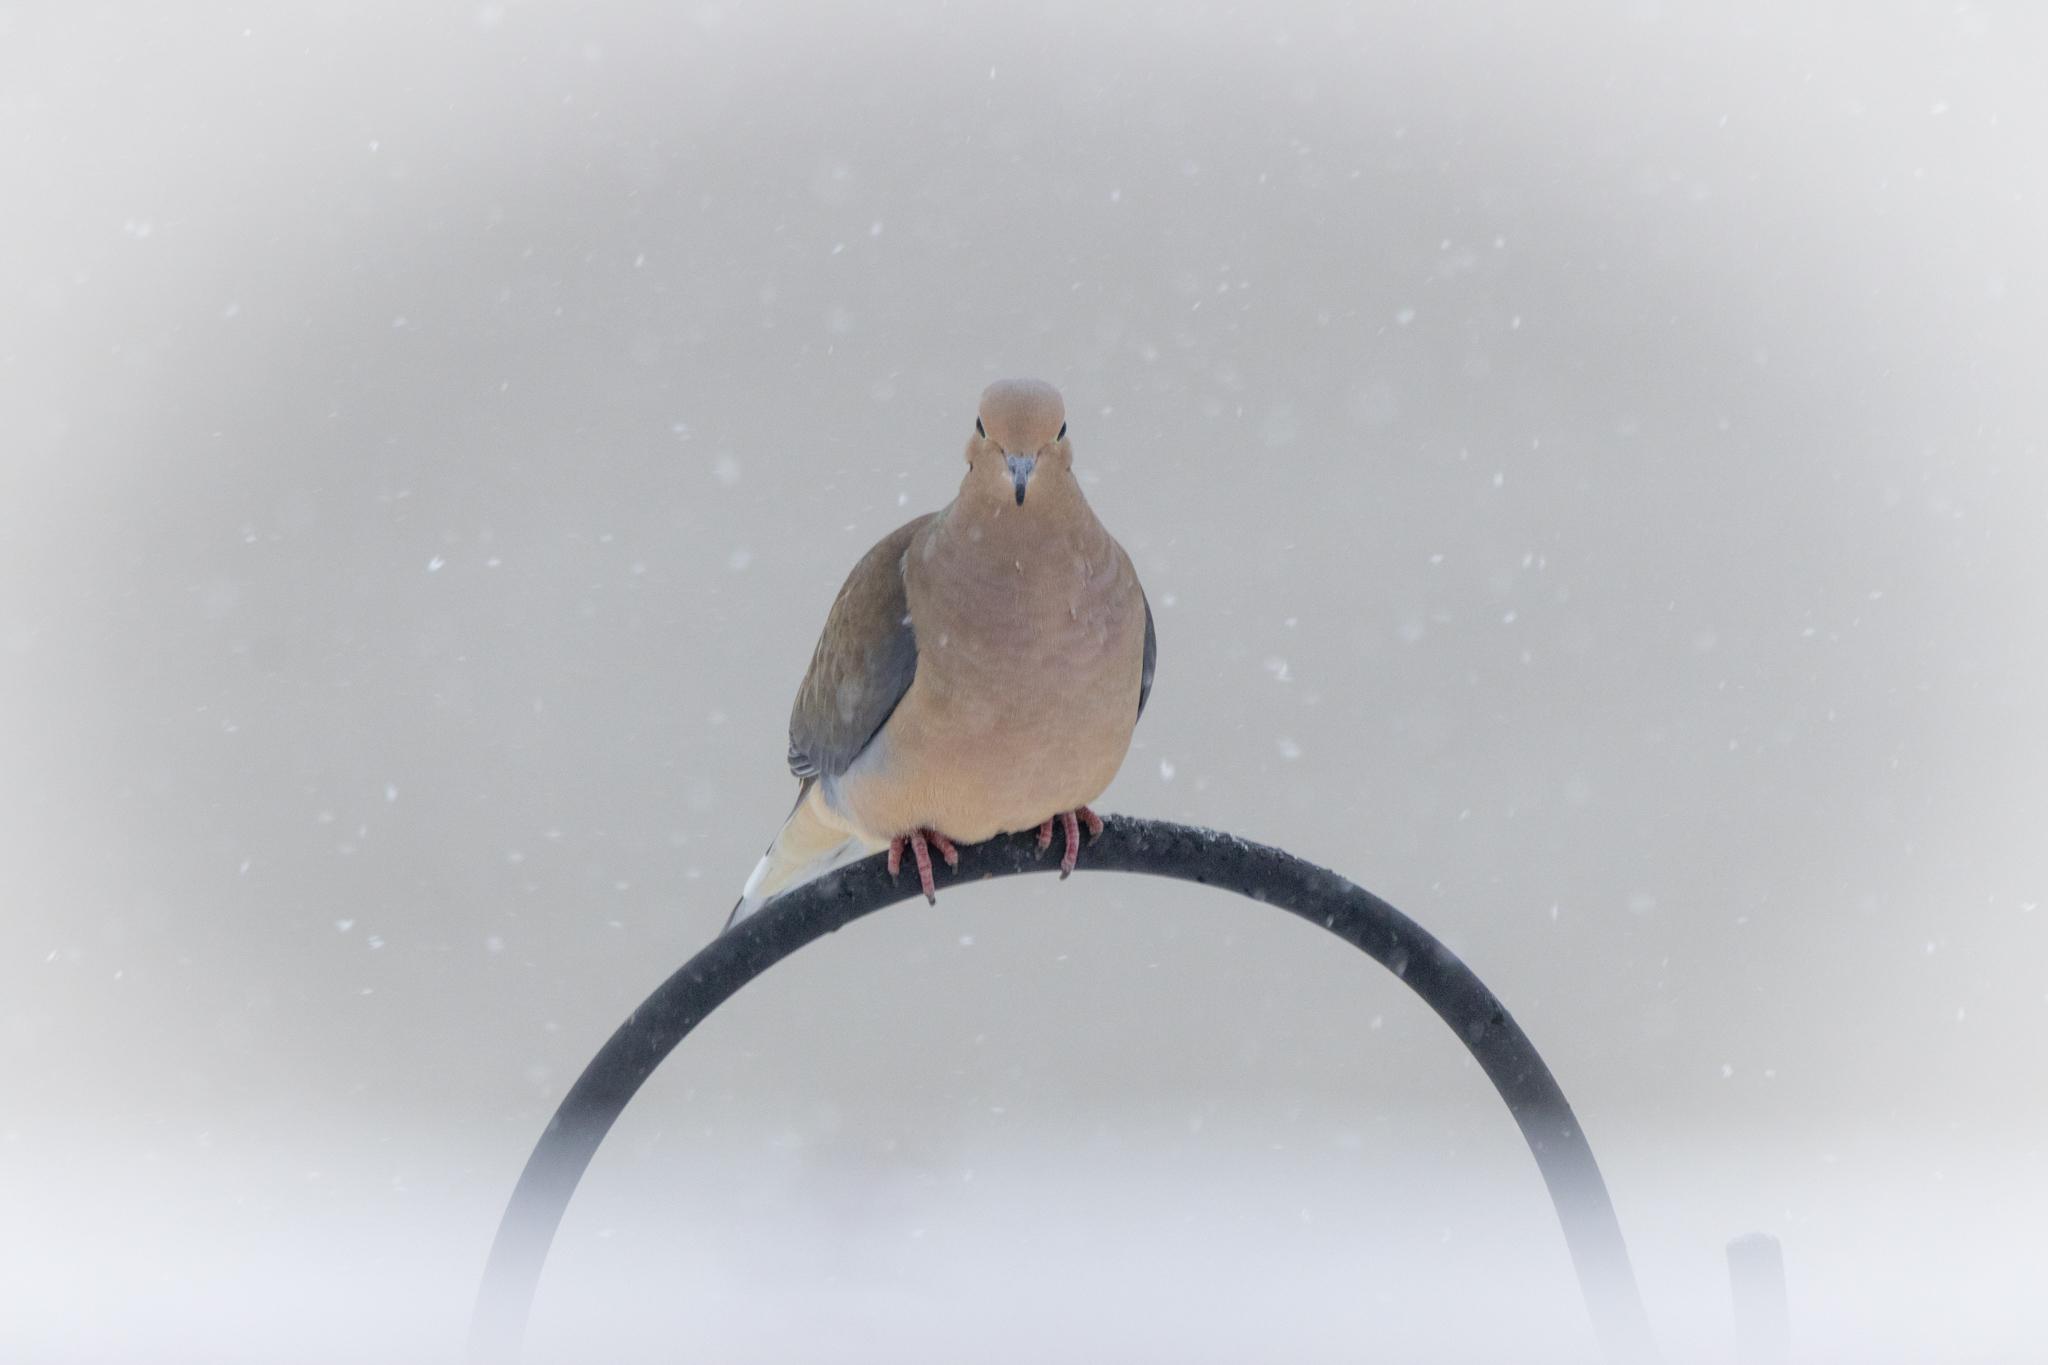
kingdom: Animalia
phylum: Chordata
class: Aves
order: Columbiformes
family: Columbidae
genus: Zenaida
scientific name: Zenaida macroura
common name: Mourning dove
